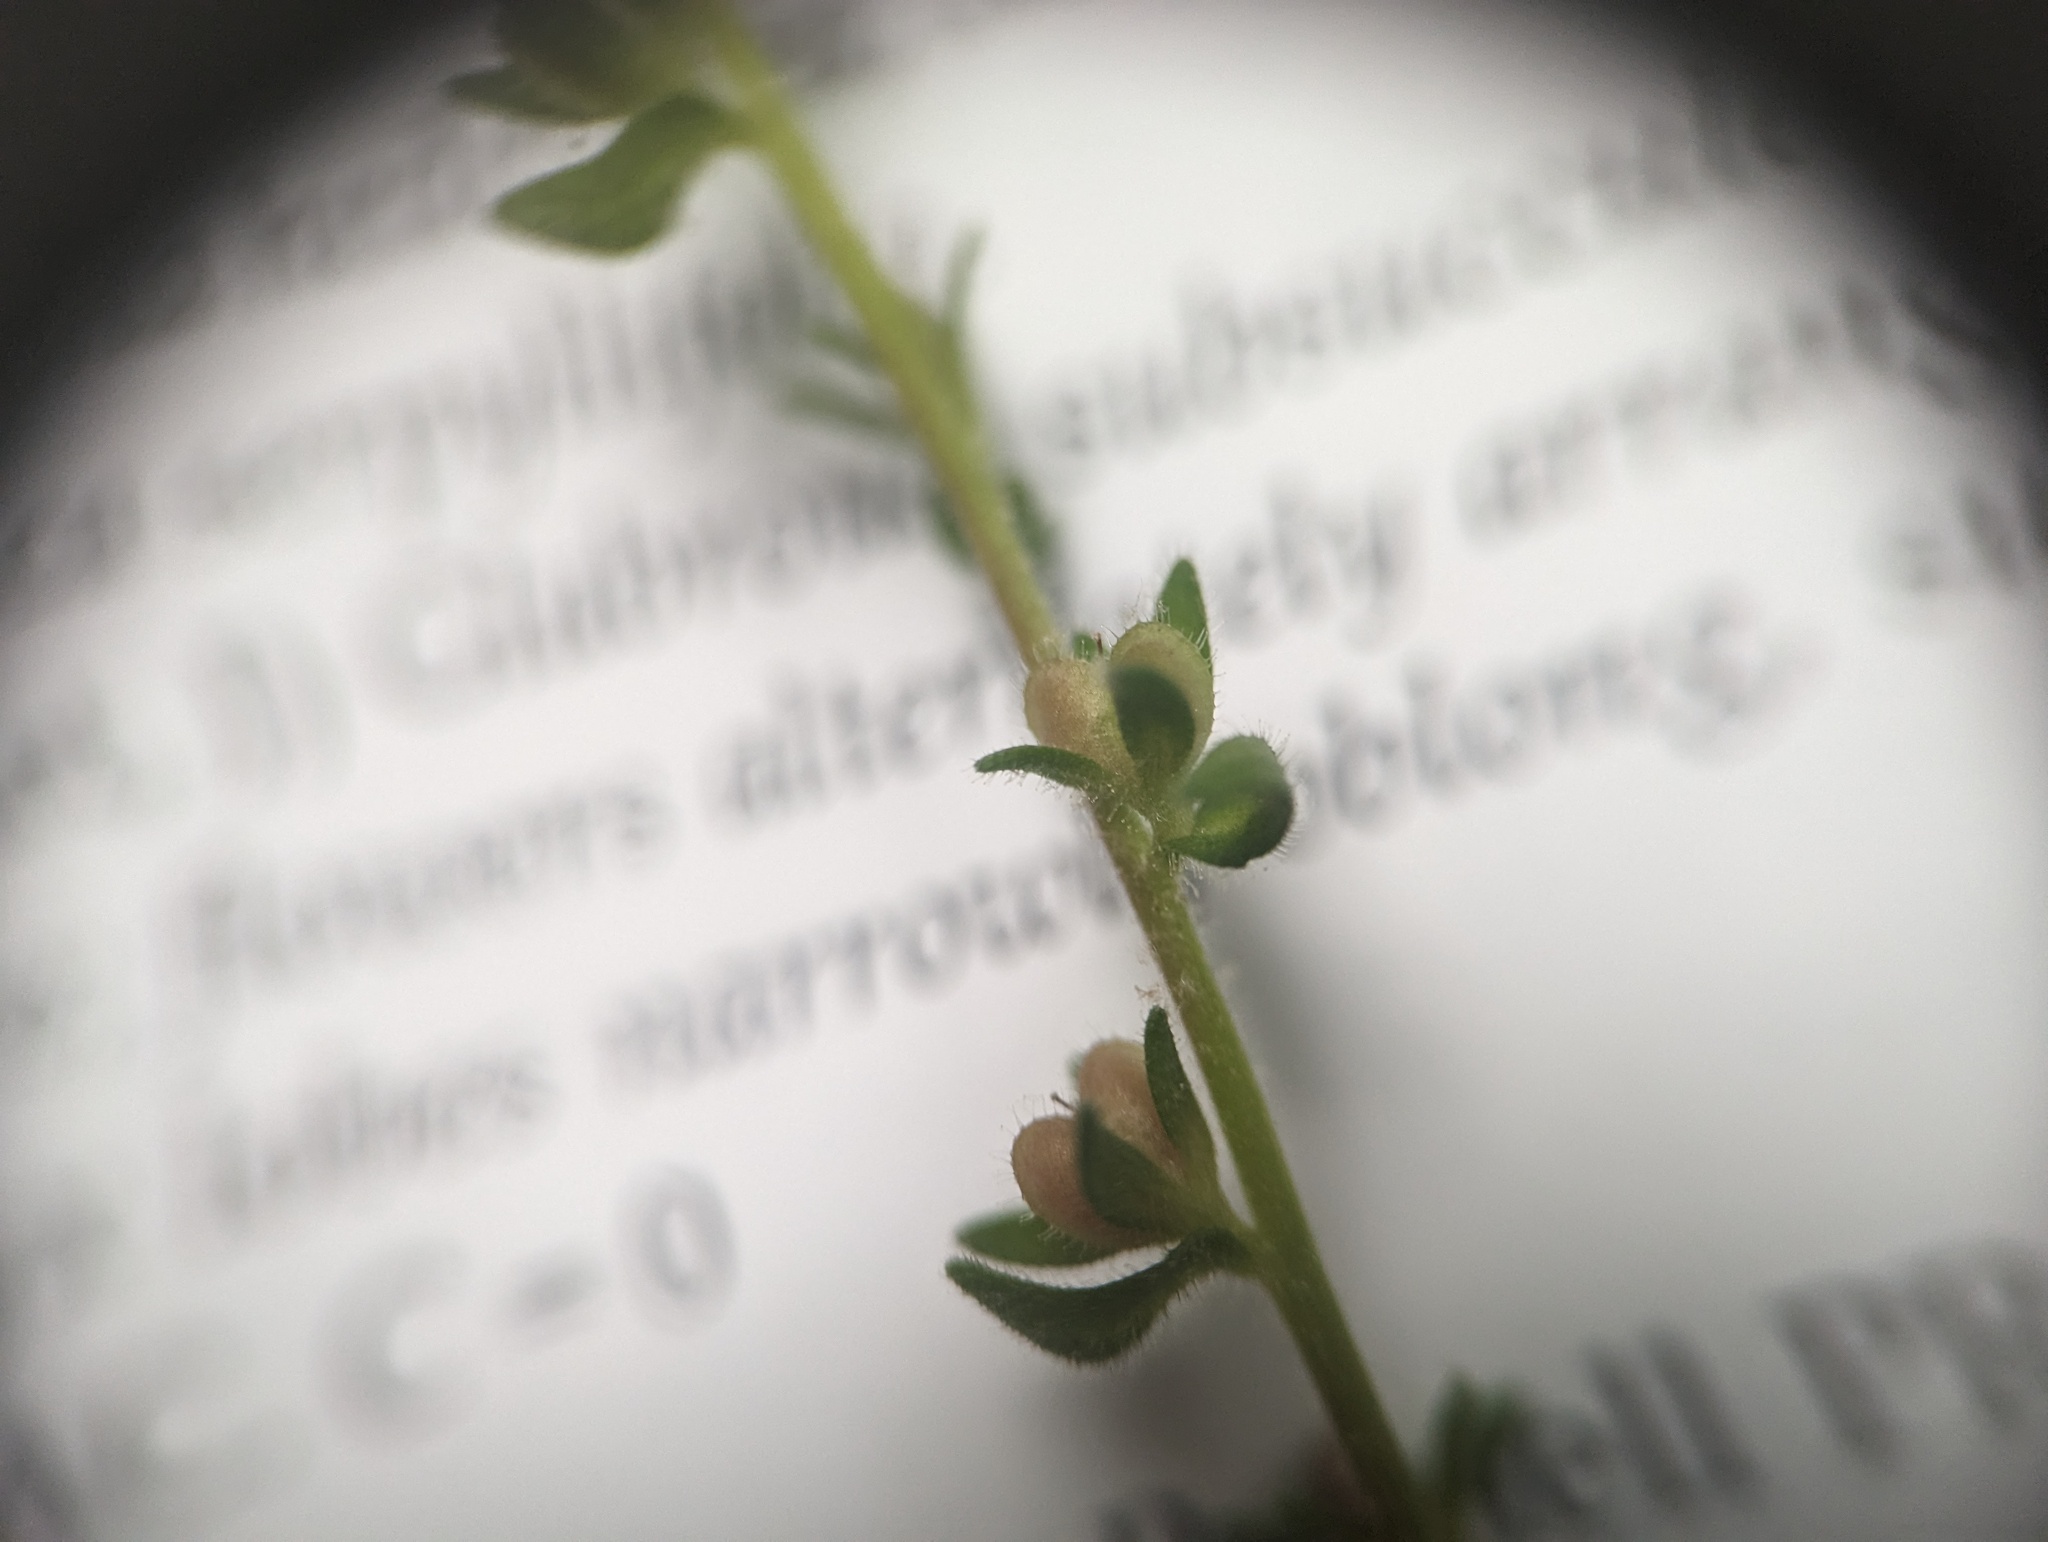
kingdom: Plantae
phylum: Tracheophyta
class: Magnoliopsida
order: Lamiales
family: Plantaginaceae
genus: Veronica
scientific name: Veronica arvensis
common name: Corn speedwell
